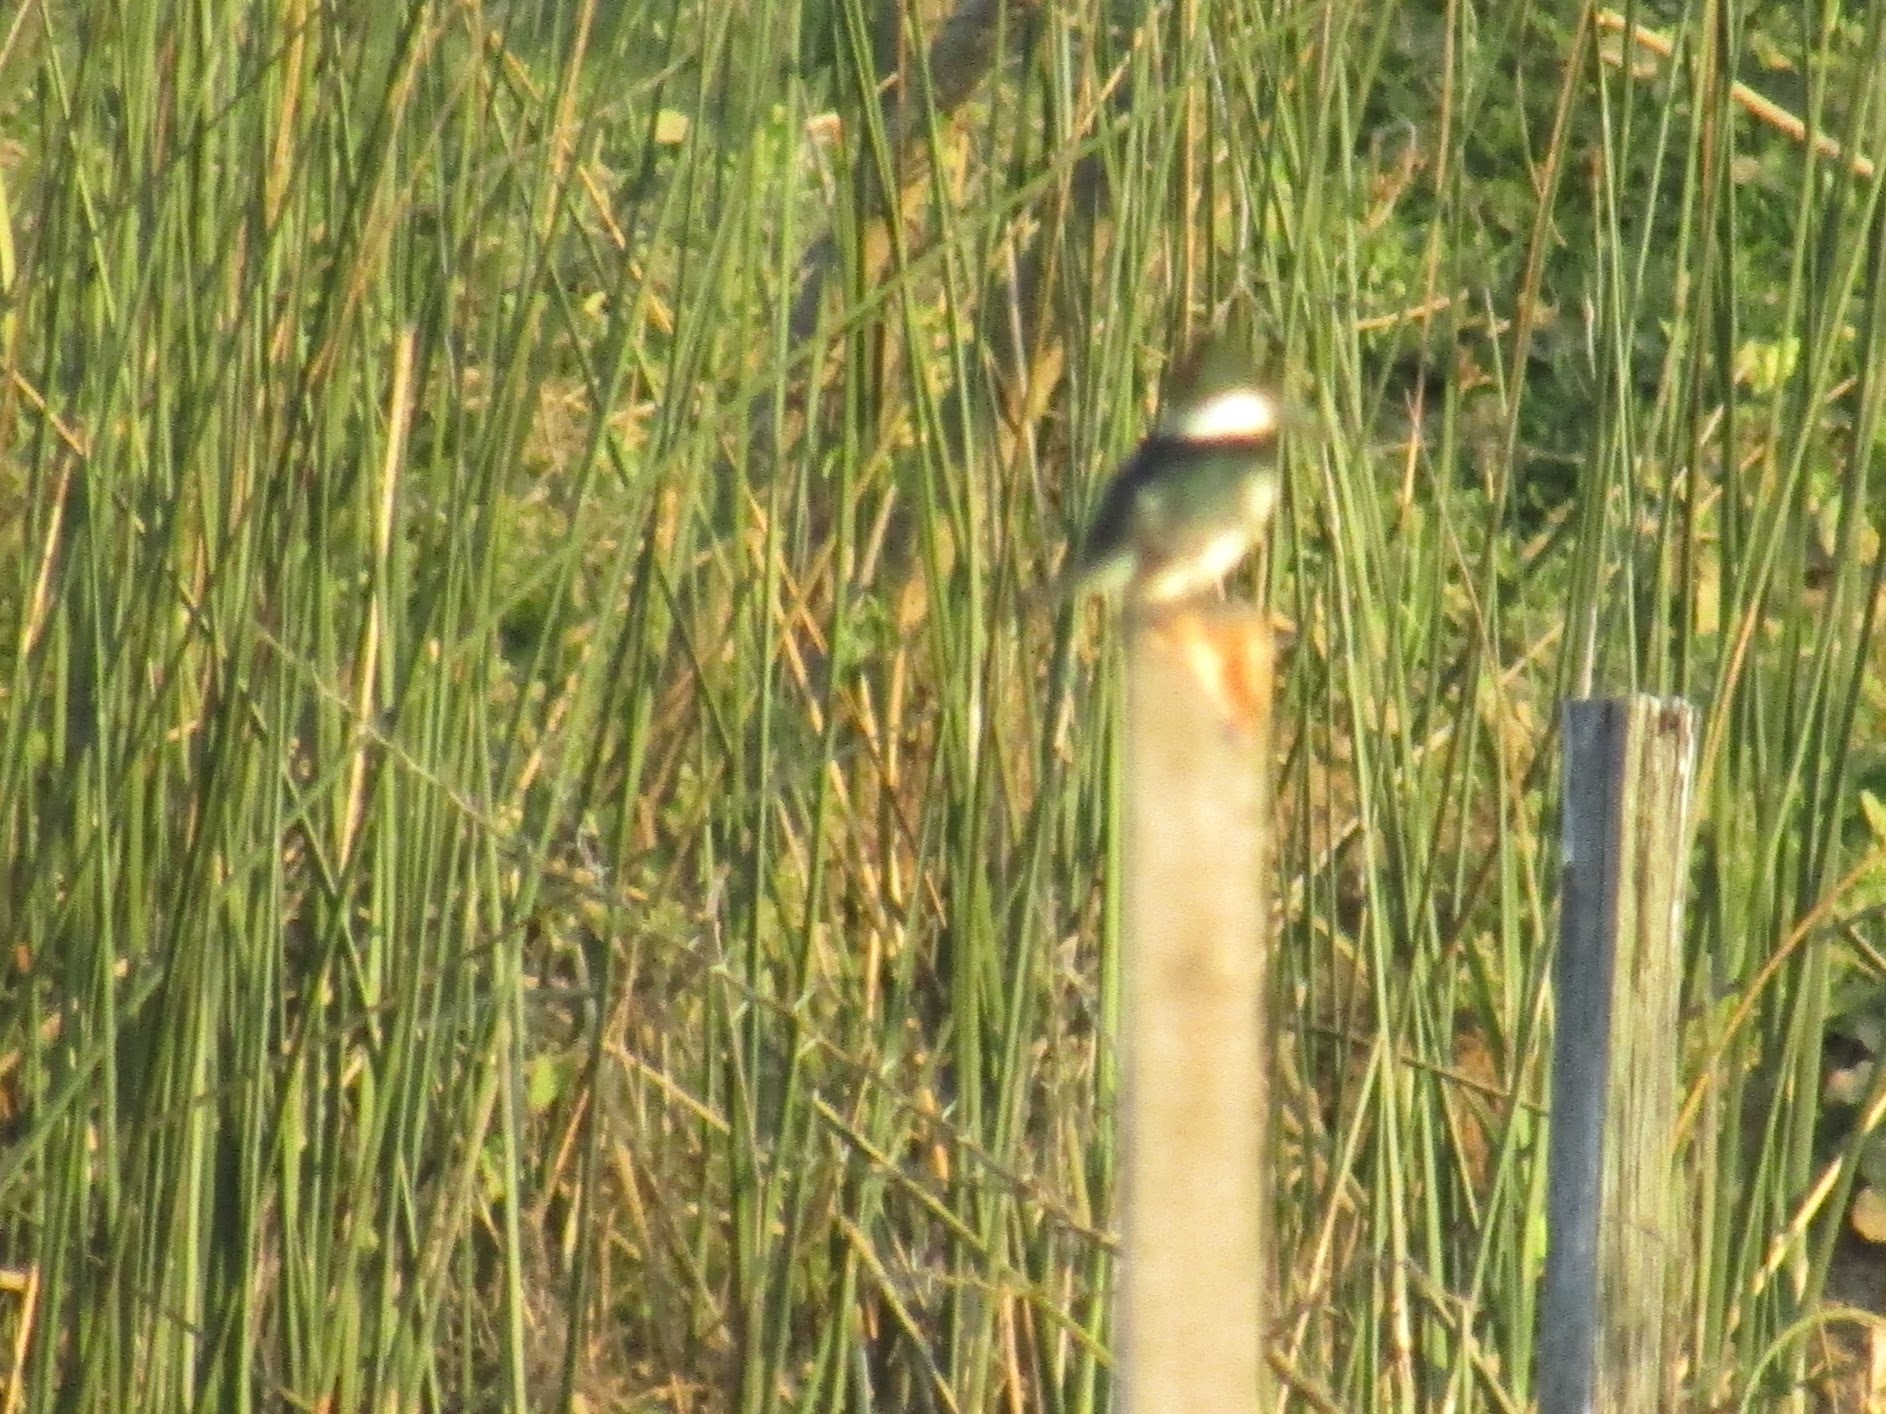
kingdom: Animalia
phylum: Chordata
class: Aves
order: Coraciiformes
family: Alcedinidae
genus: Chloroceryle
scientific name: Chloroceryle americana
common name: Green kingfisher
